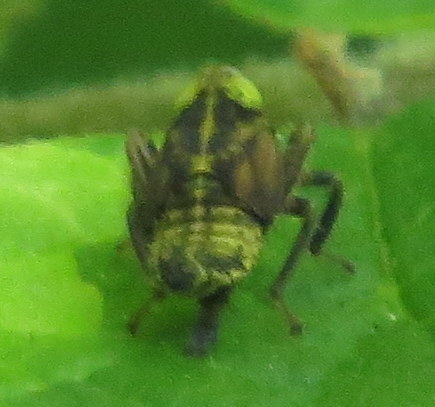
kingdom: Animalia
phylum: Arthropoda
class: Insecta
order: Hemiptera
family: Cicadellidae
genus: Jikradia
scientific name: Jikradia olitoria
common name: Coppery leafhopper
